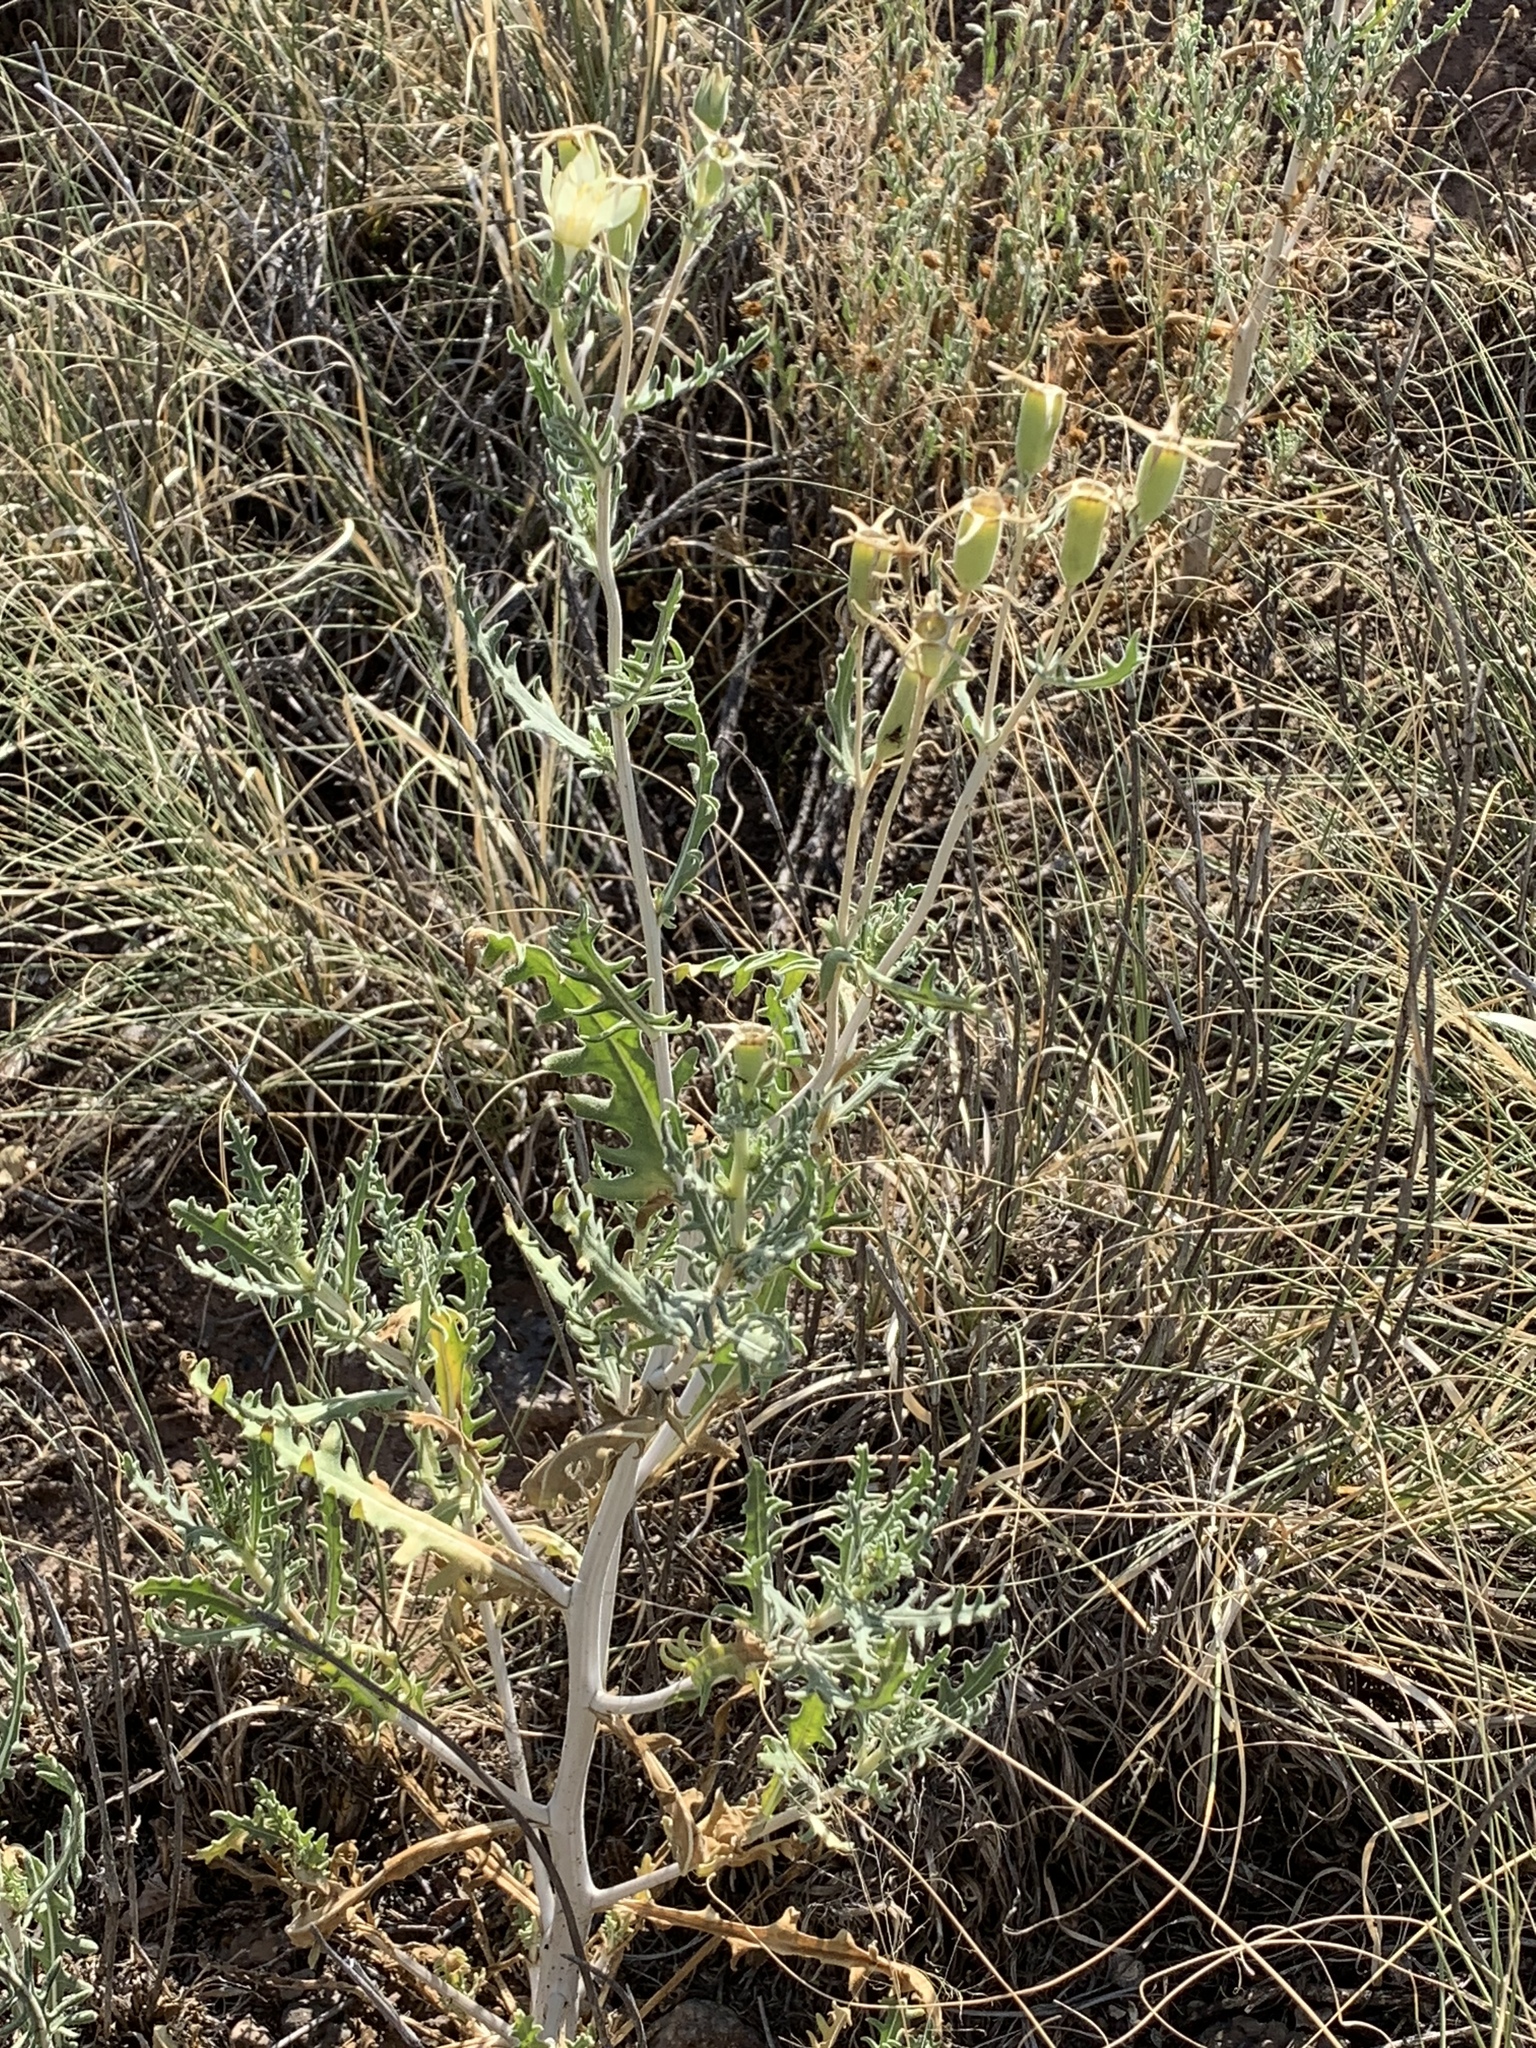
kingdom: Plantae
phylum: Tracheophyta
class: Magnoliopsida
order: Brassicales
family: Brassicaceae
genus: Descurainia
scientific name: Descurainia sophia
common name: Flixweed
